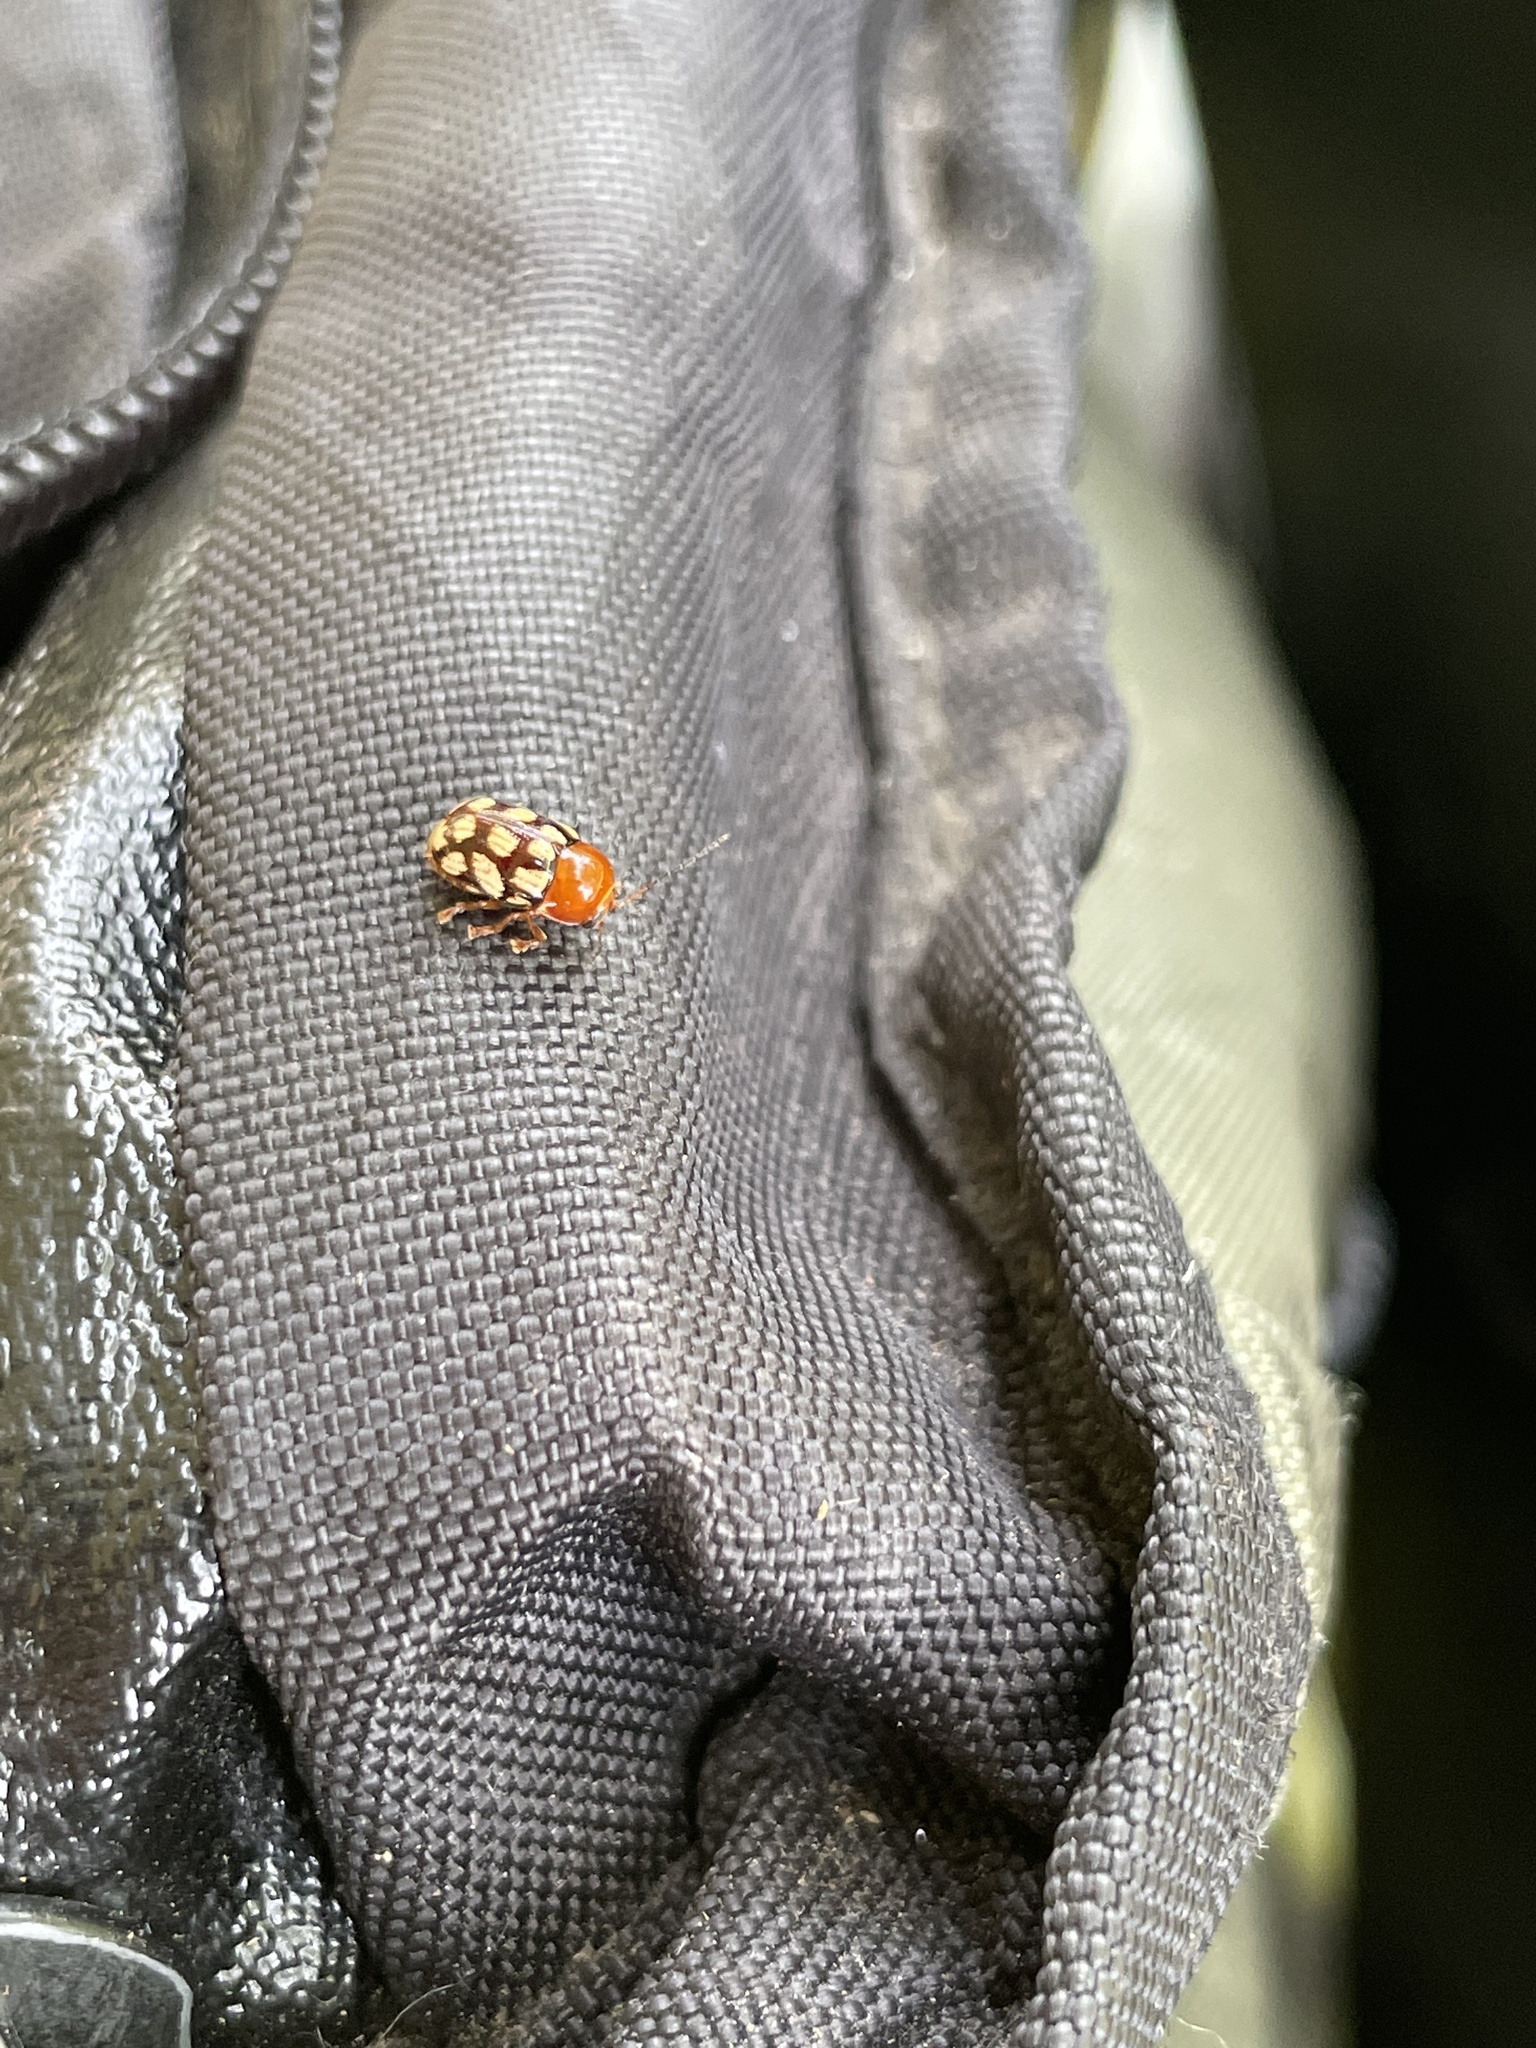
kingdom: Animalia
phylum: Arthropoda
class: Insecta
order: Coleoptera
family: Chrysomelidae
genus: Cryptocephalus
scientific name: Cryptocephalus guttulatus
